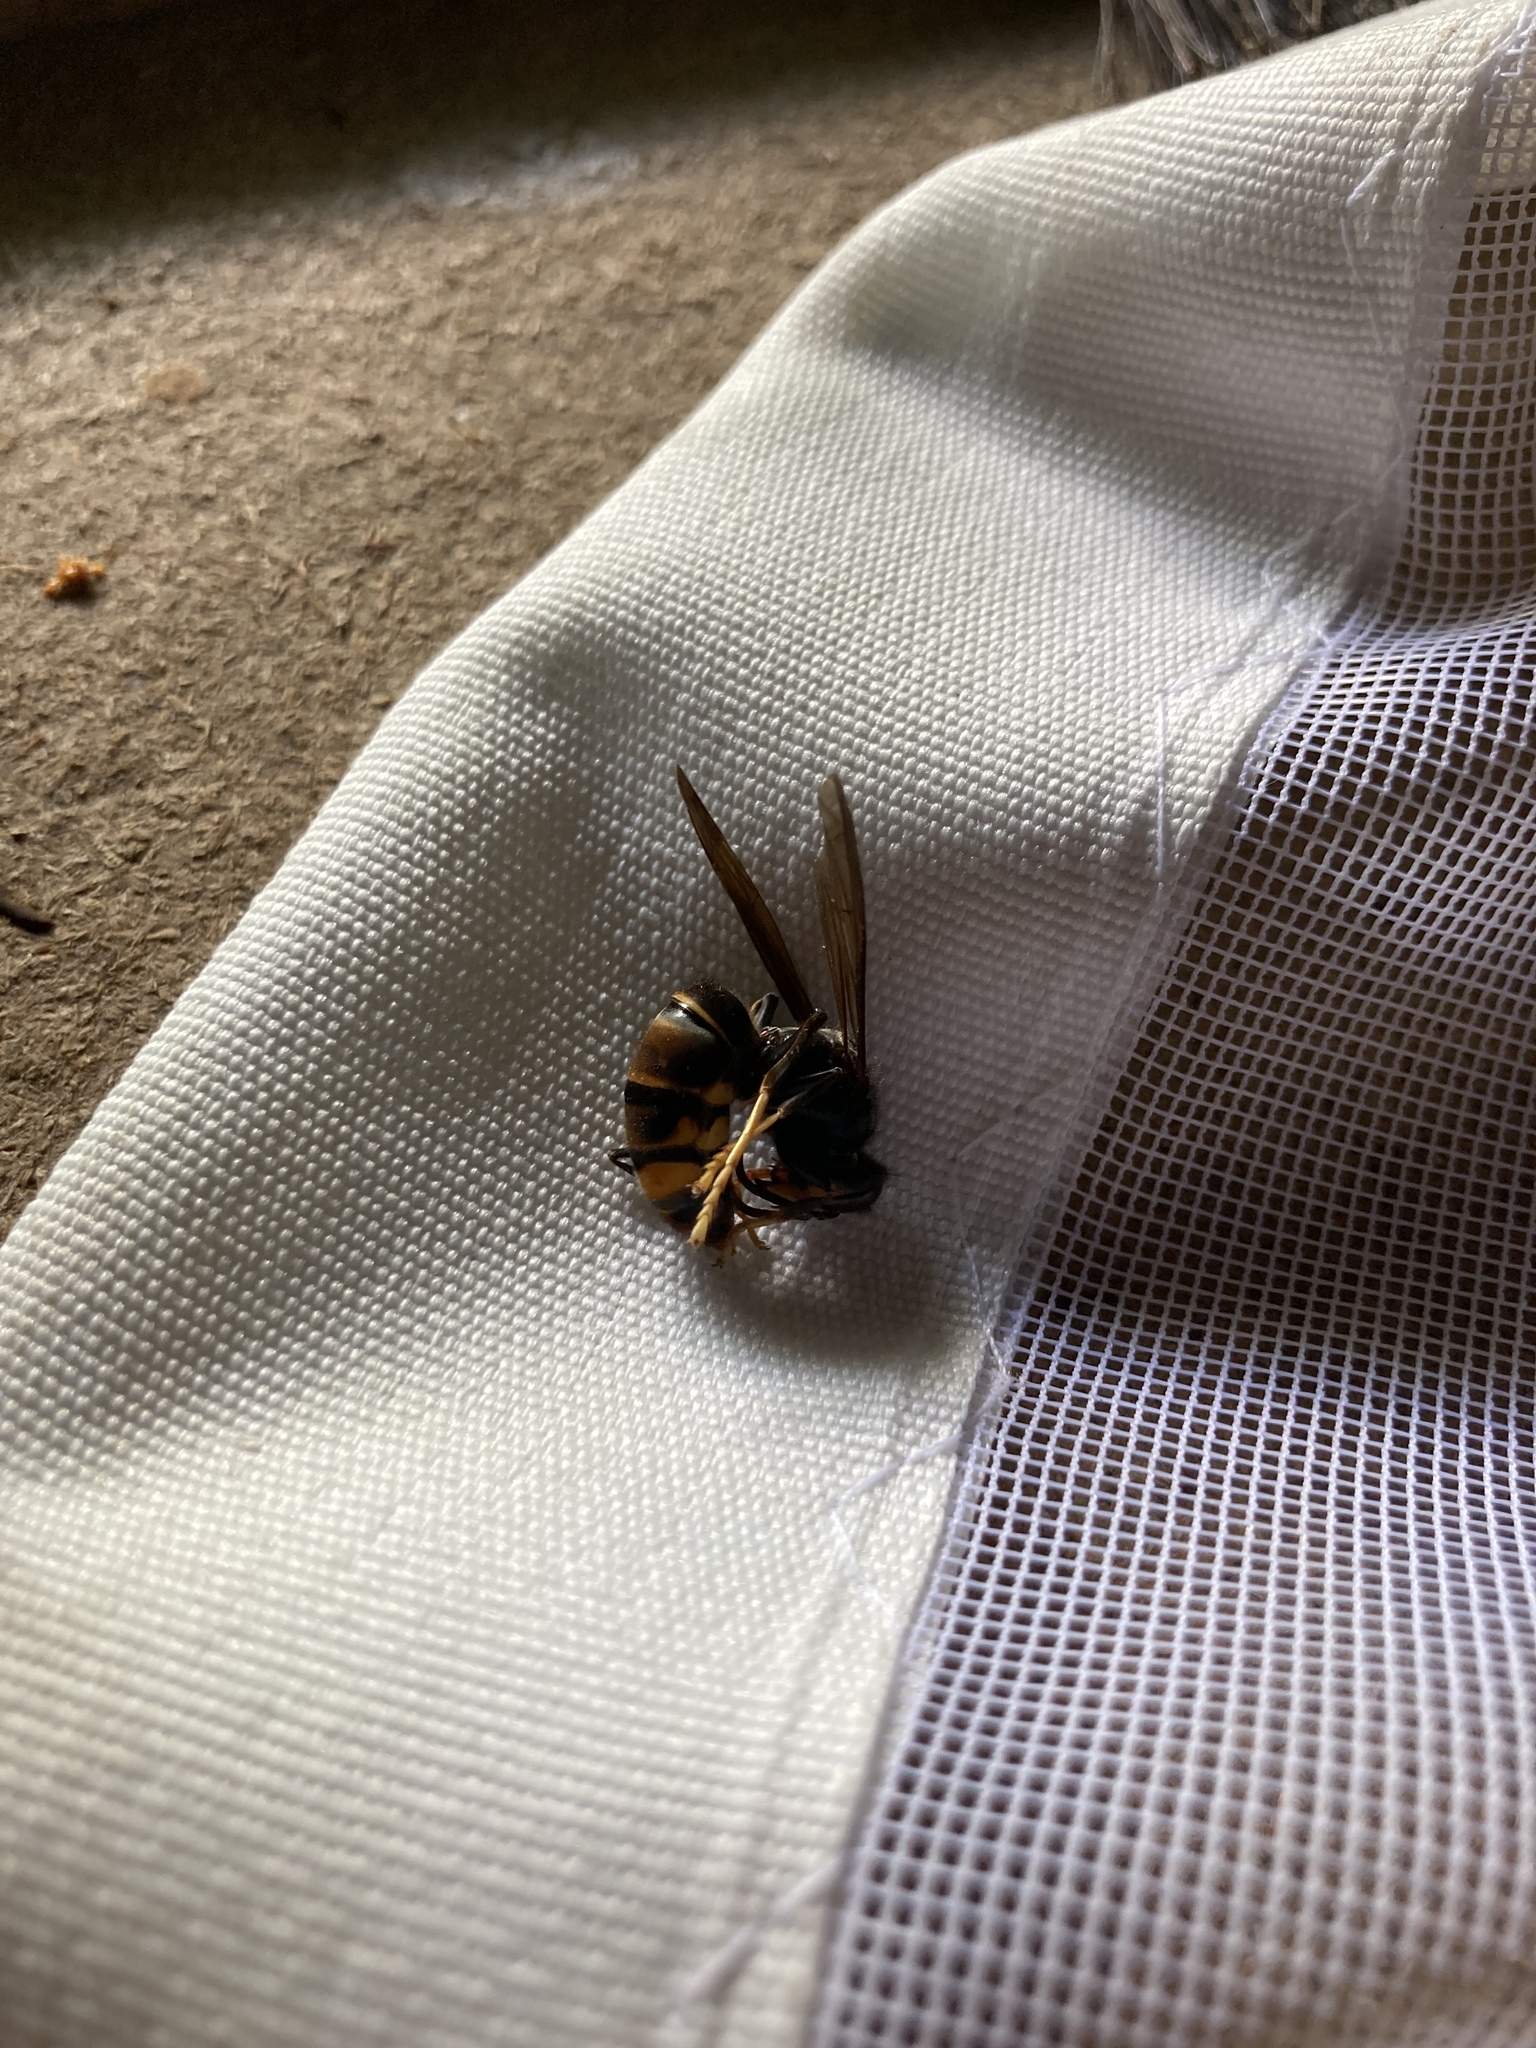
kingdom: Animalia
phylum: Arthropoda
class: Insecta
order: Hymenoptera
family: Vespidae
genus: Vespa
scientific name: Vespa velutina
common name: Asian hornet
